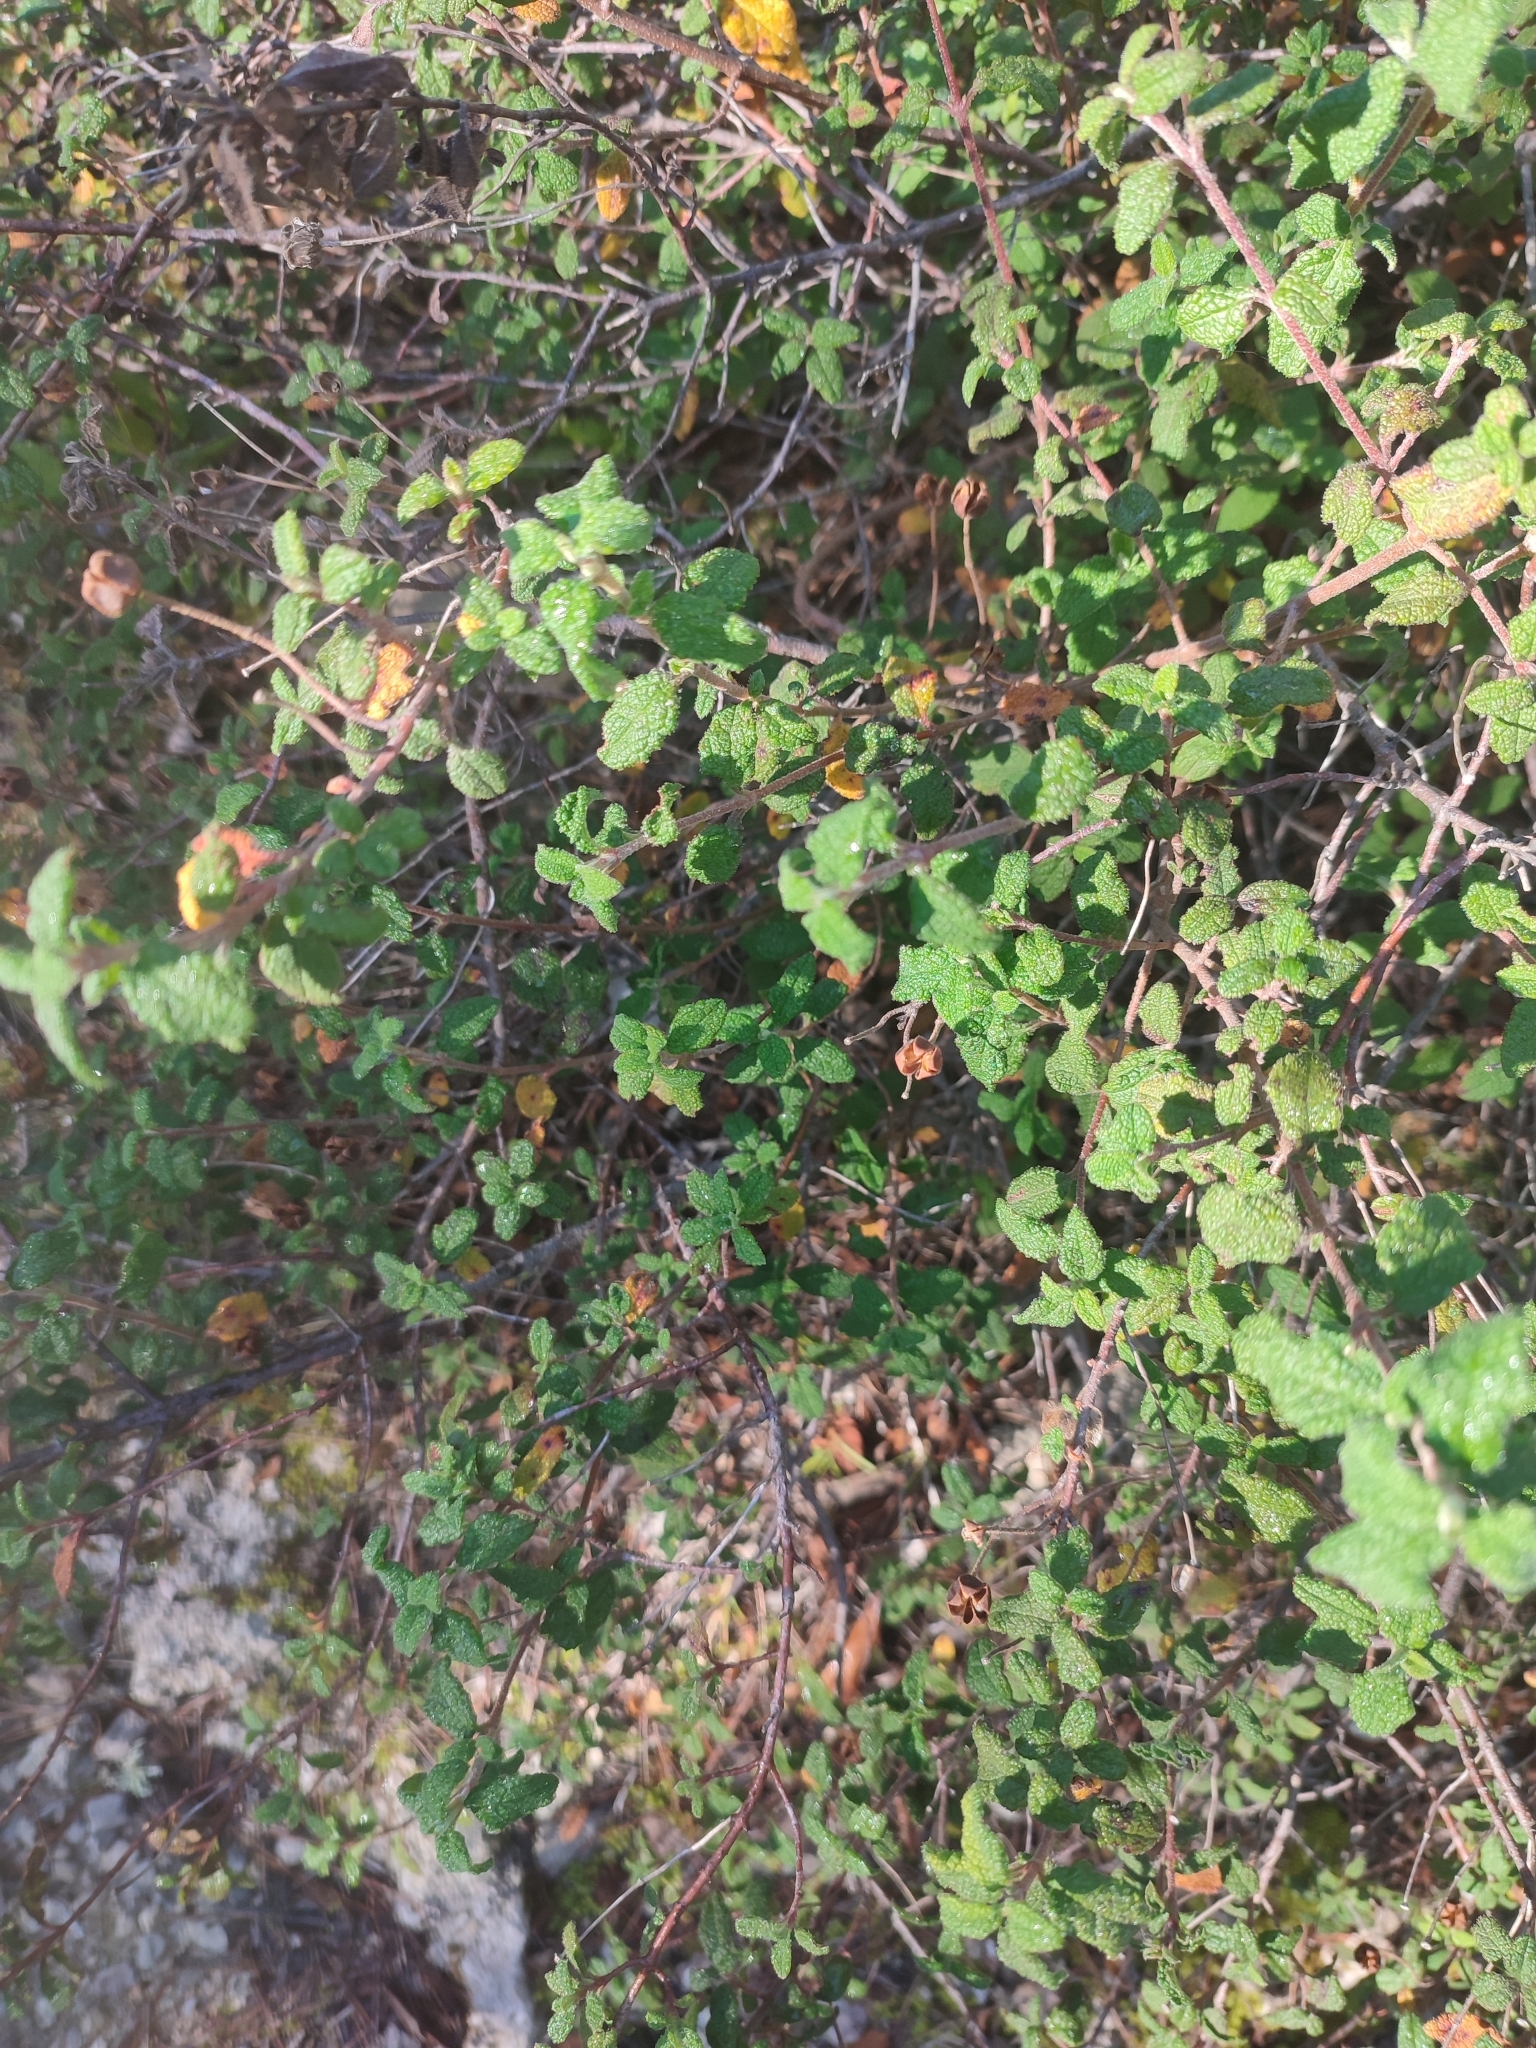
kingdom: Plantae
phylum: Tracheophyta
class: Magnoliopsida
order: Malvales
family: Cistaceae
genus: Cistus
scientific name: Cistus salviifolius
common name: Salvia cistus
